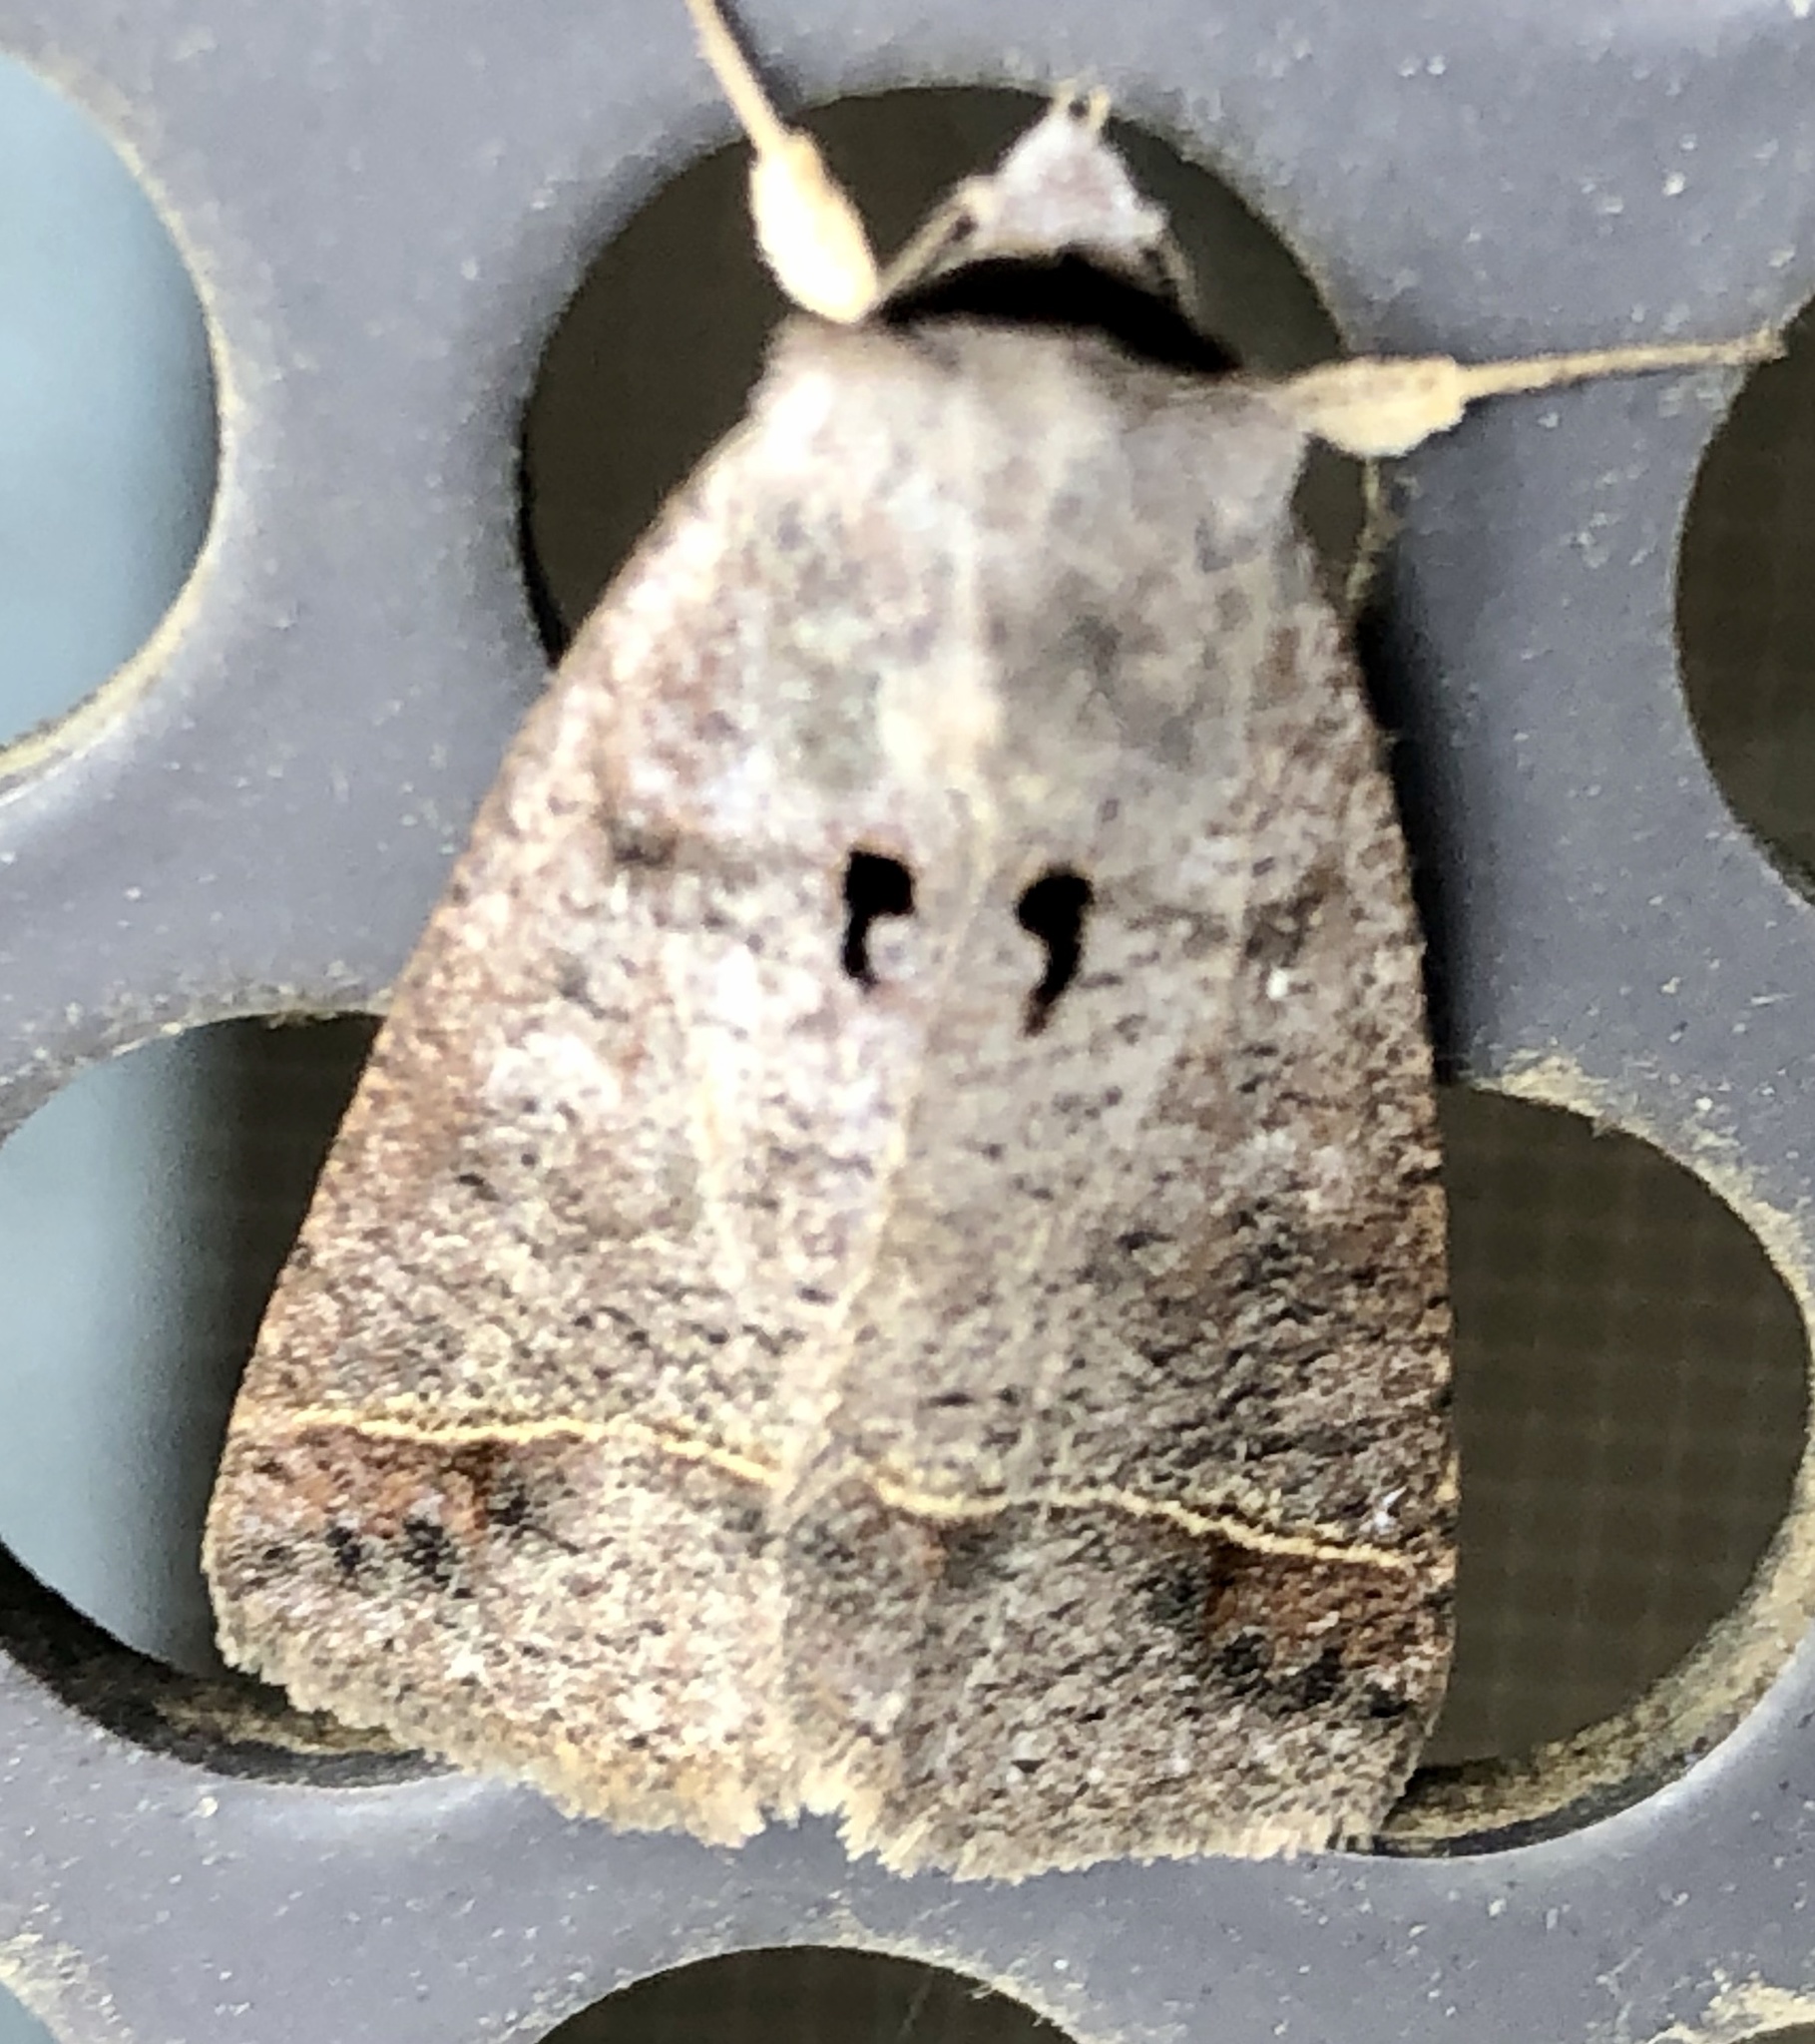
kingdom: Animalia
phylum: Arthropoda
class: Insecta
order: Lepidoptera
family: Erebidae
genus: Pantydia
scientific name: Pantydia metaspila
